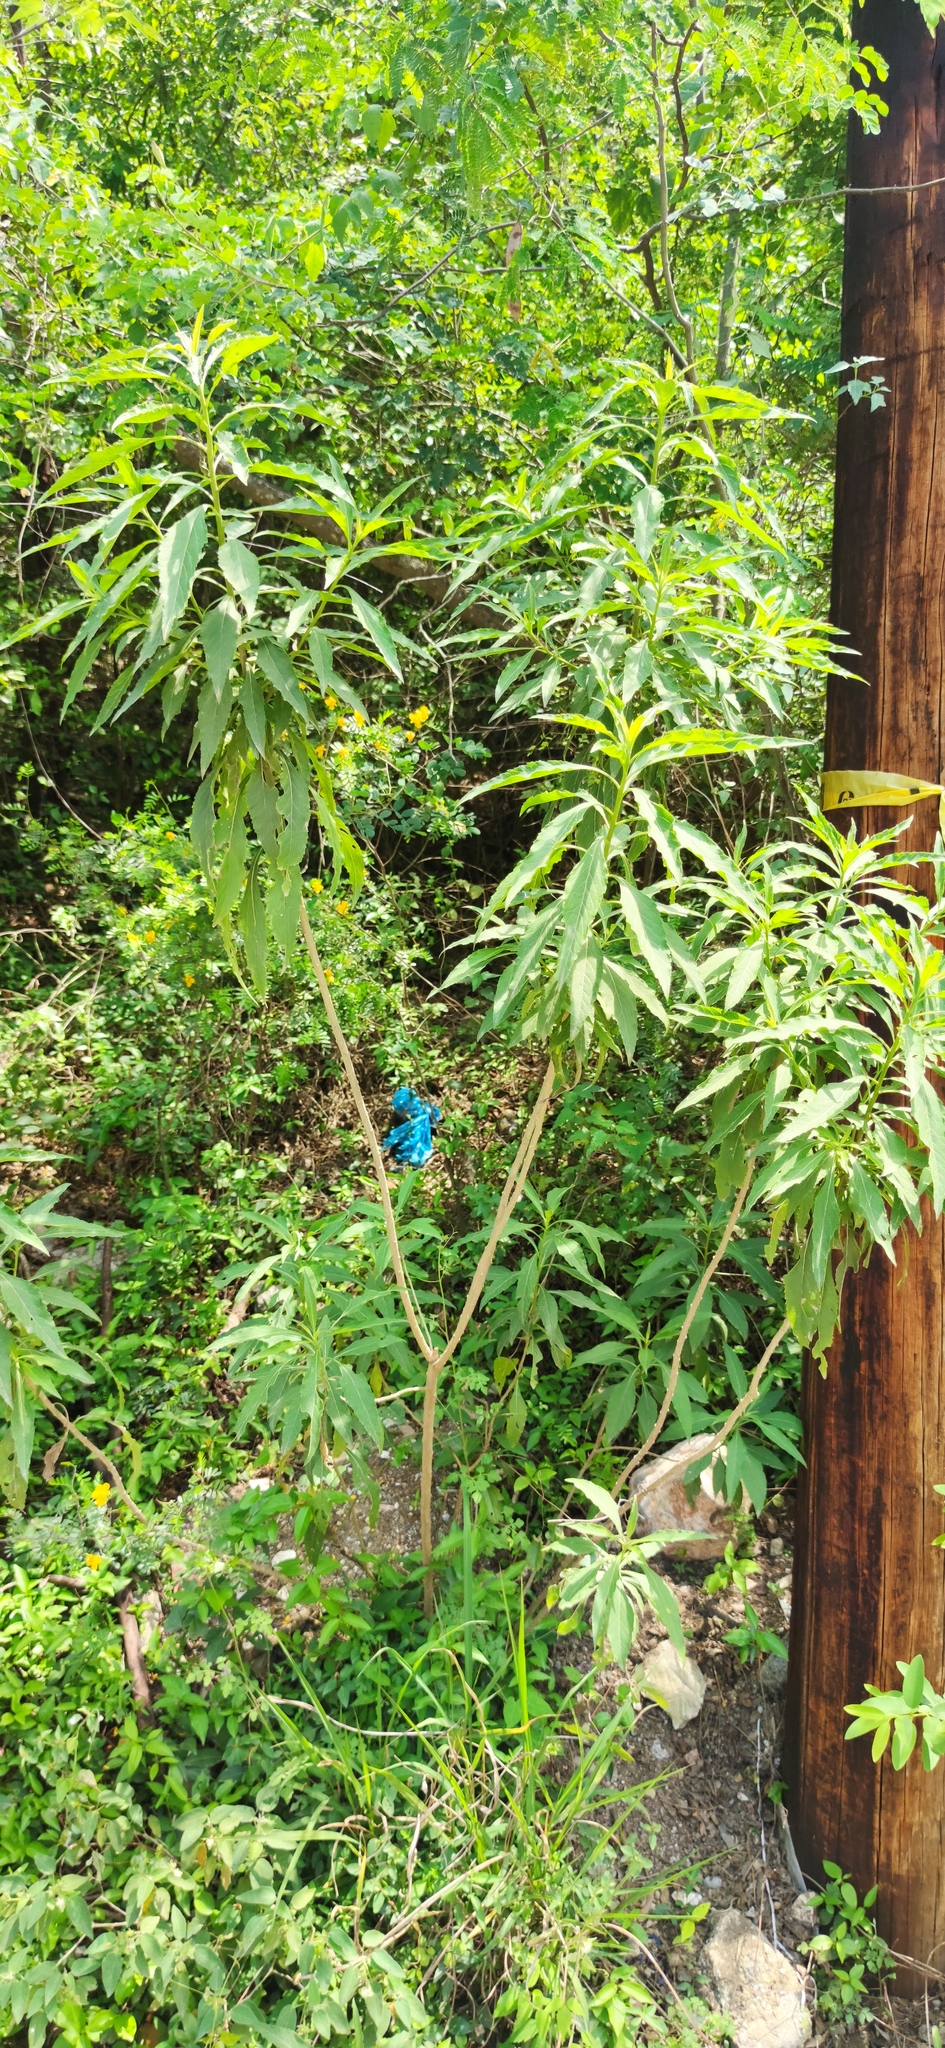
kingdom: Plantae
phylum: Tracheophyta
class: Magnoliopsida
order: Asterales
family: Asteraceae
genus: Verbesina
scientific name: Verbesina persicifolia
